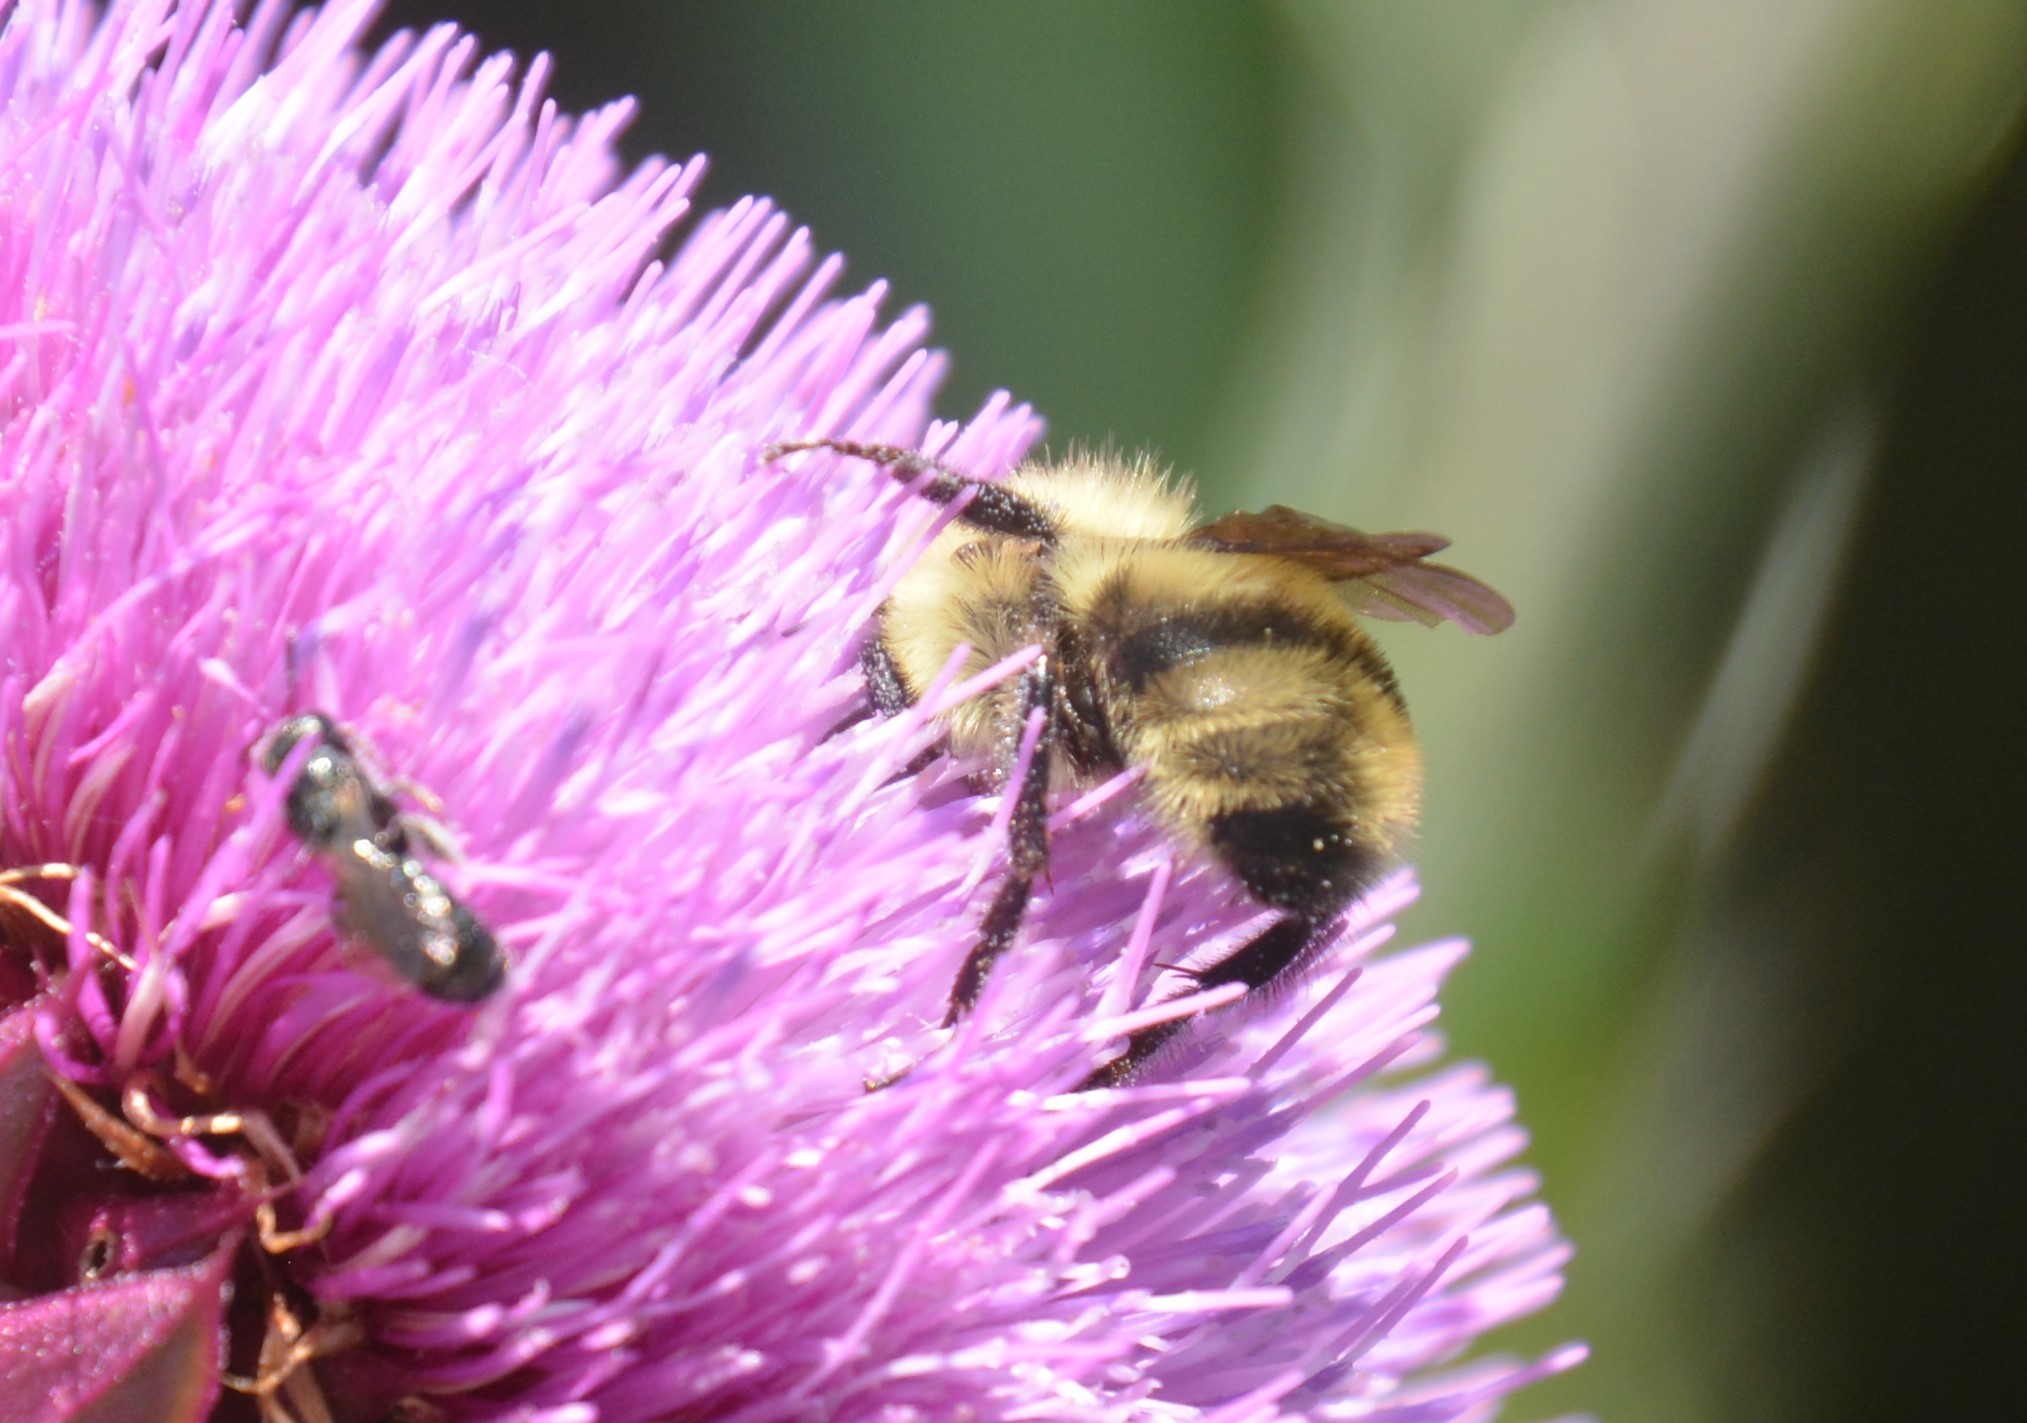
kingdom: Animalia
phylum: Arthropoda
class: Insecta
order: Hymenoptera
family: Apidae
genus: Bombus
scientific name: Bombus bimaculatus
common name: Two-spotted bumble bee
